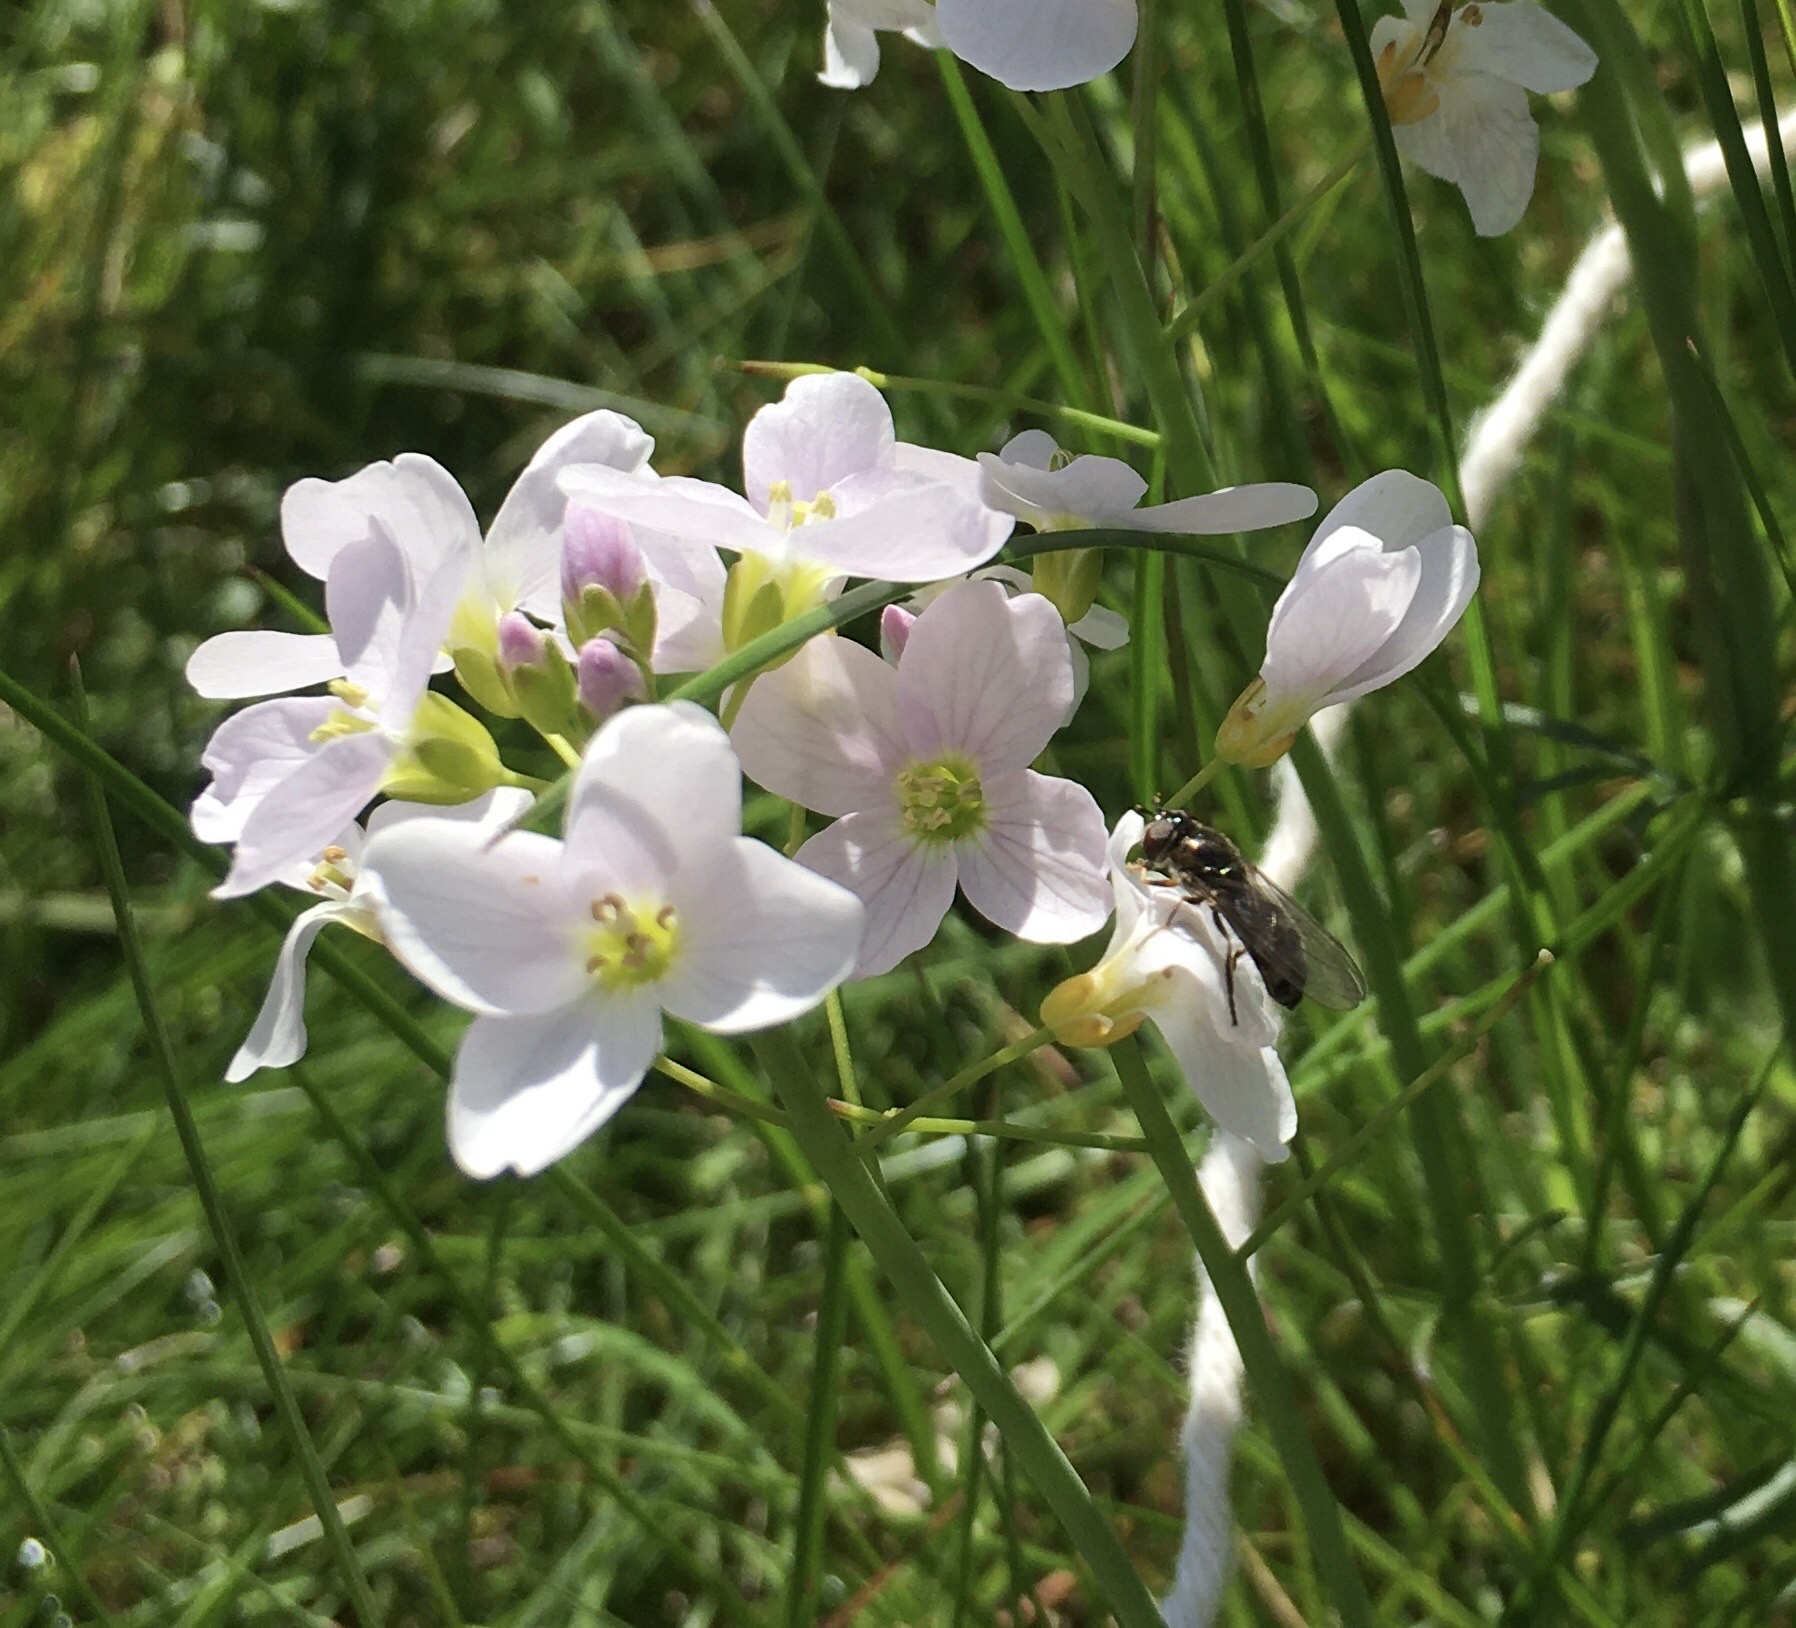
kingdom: Plantae
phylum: Tracheophyta
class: Magnoliopsida
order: Brassicales
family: Brassicaceae
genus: Cardamine
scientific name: Cardamine pratensis
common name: Cuckoo flower
